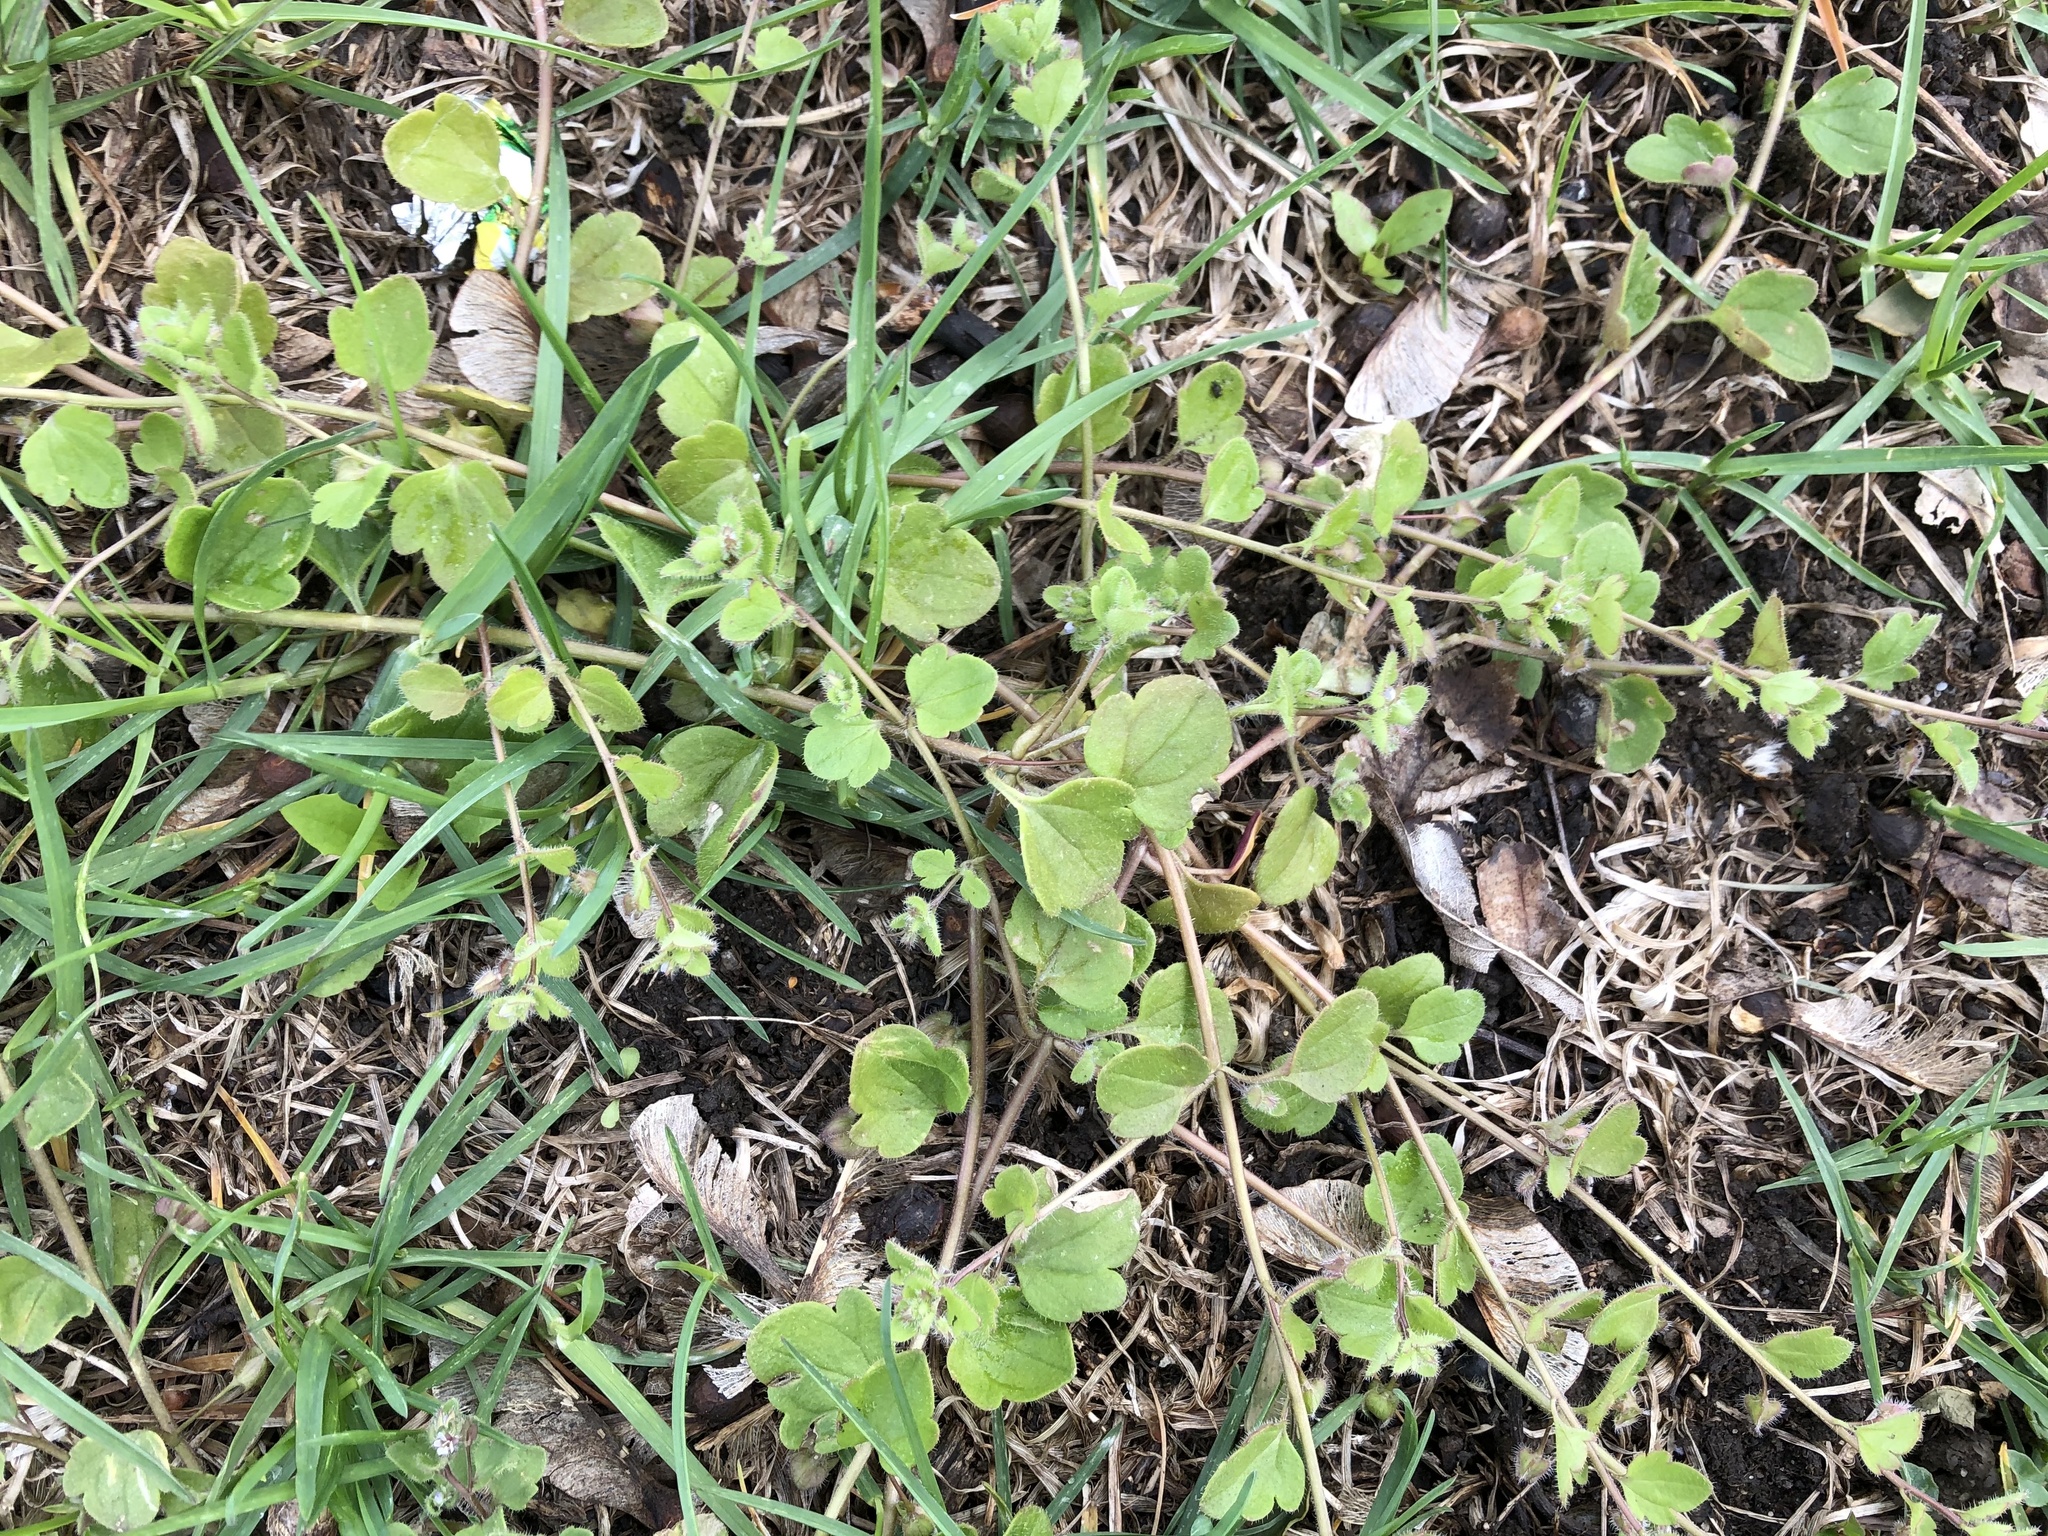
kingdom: Plantae
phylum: Tracheophyta
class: Magnoliopsida
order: Lamiales
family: Plantaginaceae
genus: Veronica
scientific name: Veronica sublobata
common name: False ivy-leaved speedwell
